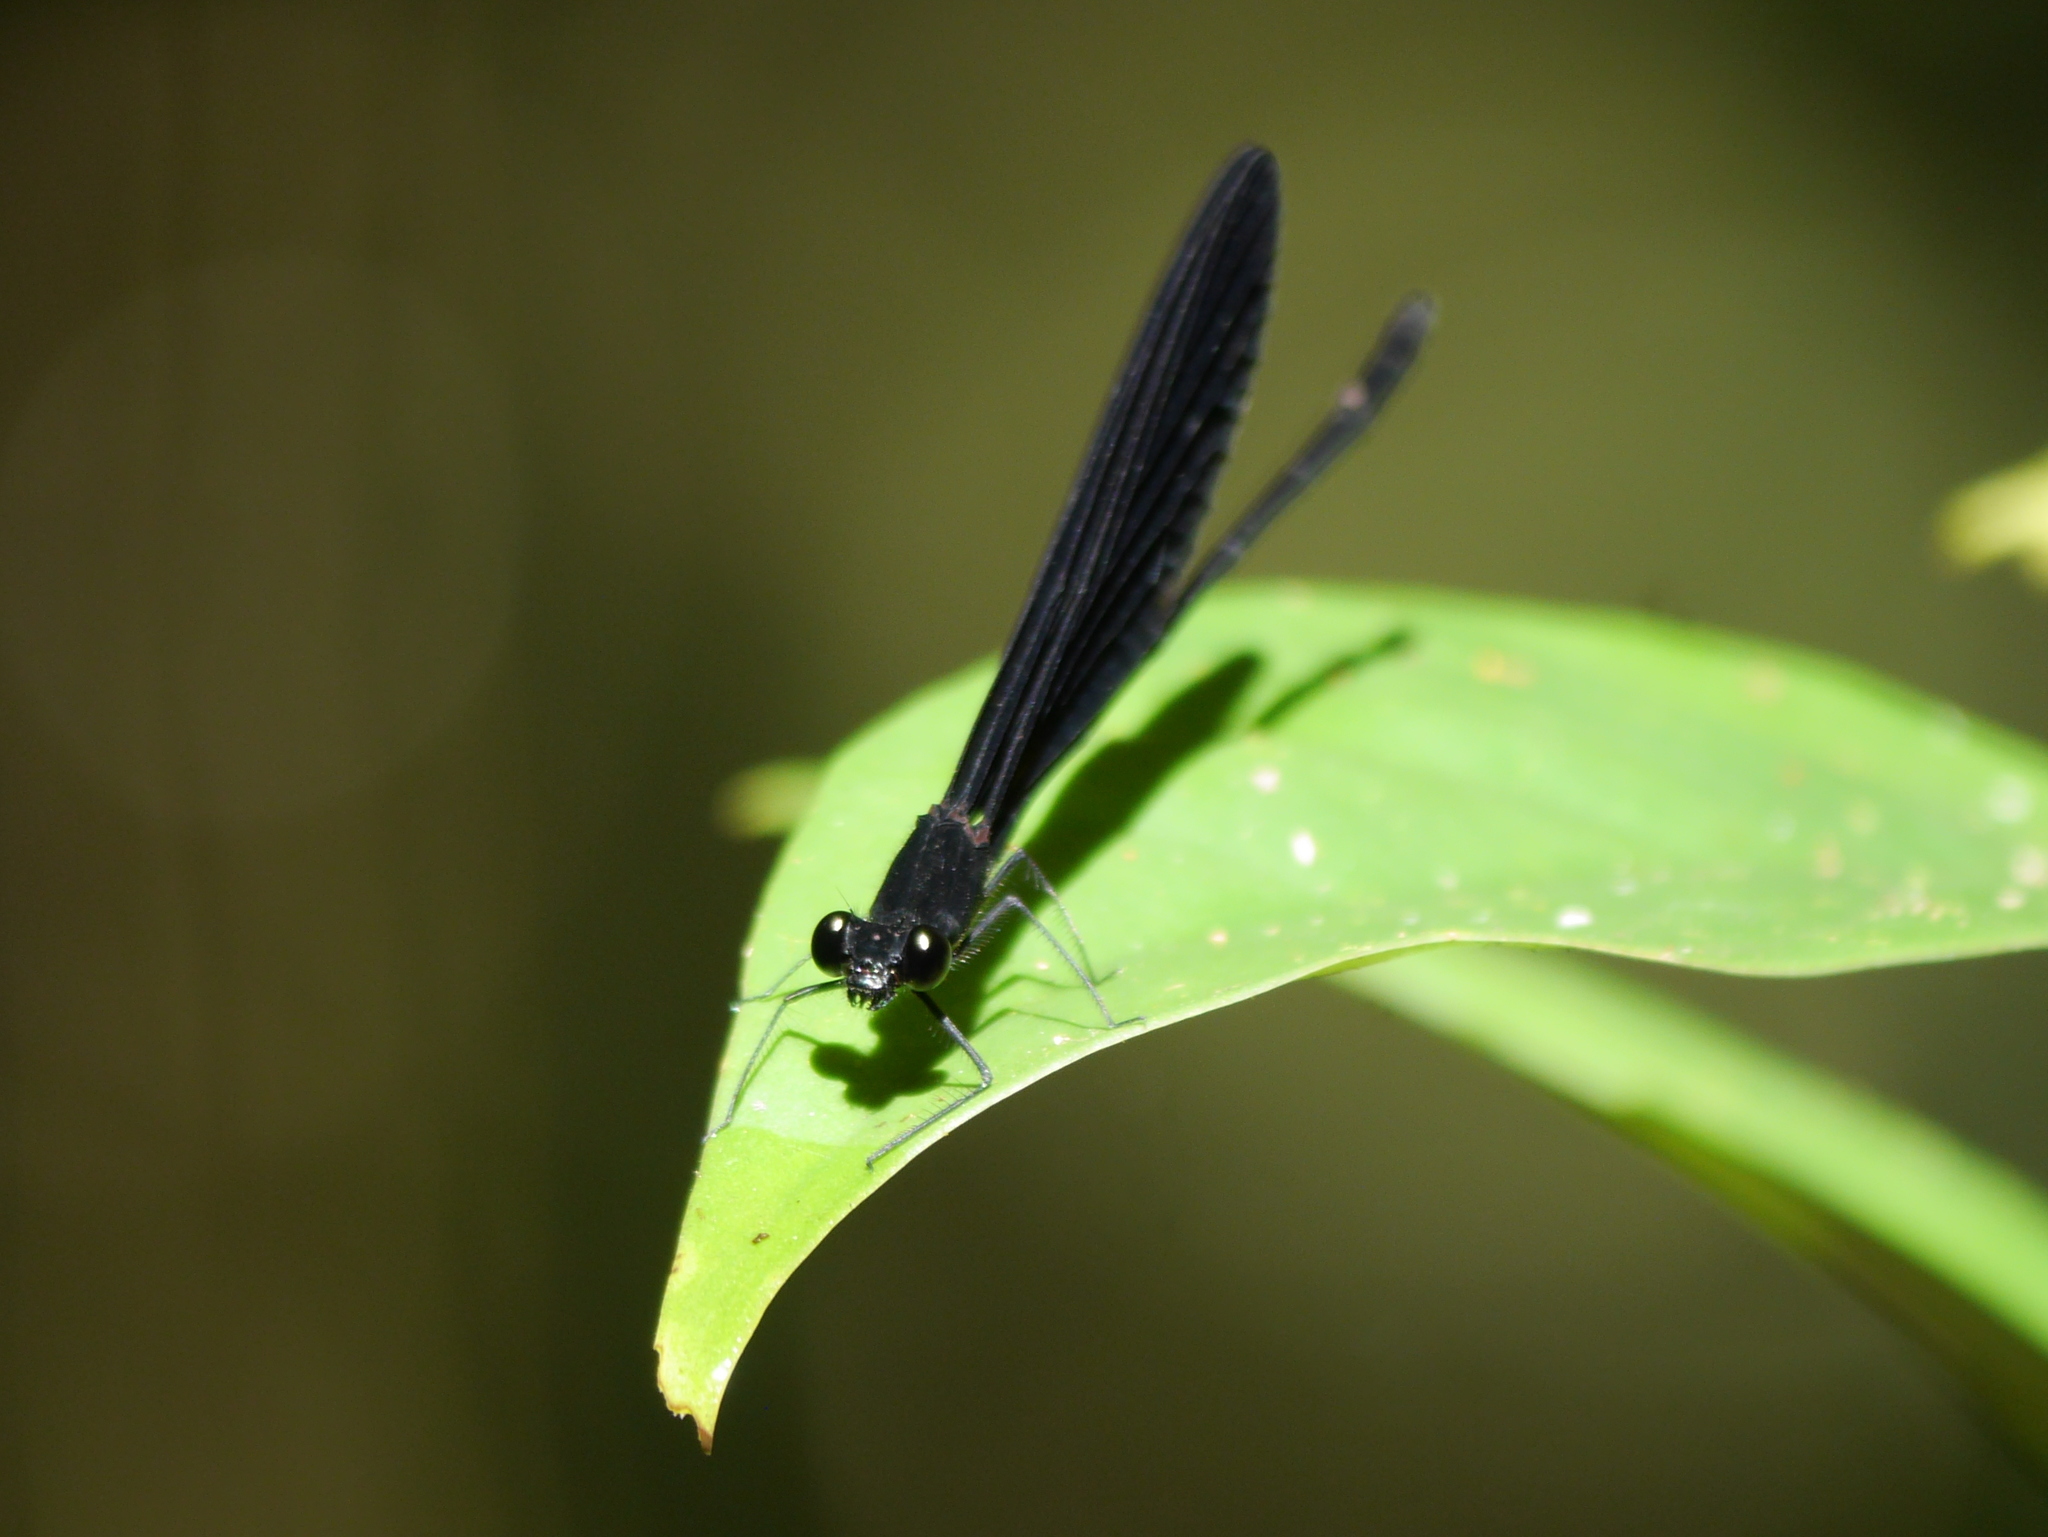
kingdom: Animalia
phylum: Arthropoda
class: Insecta
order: Odonata
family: Calopterygidae
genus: Vestalis
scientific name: Vestalis lugens
